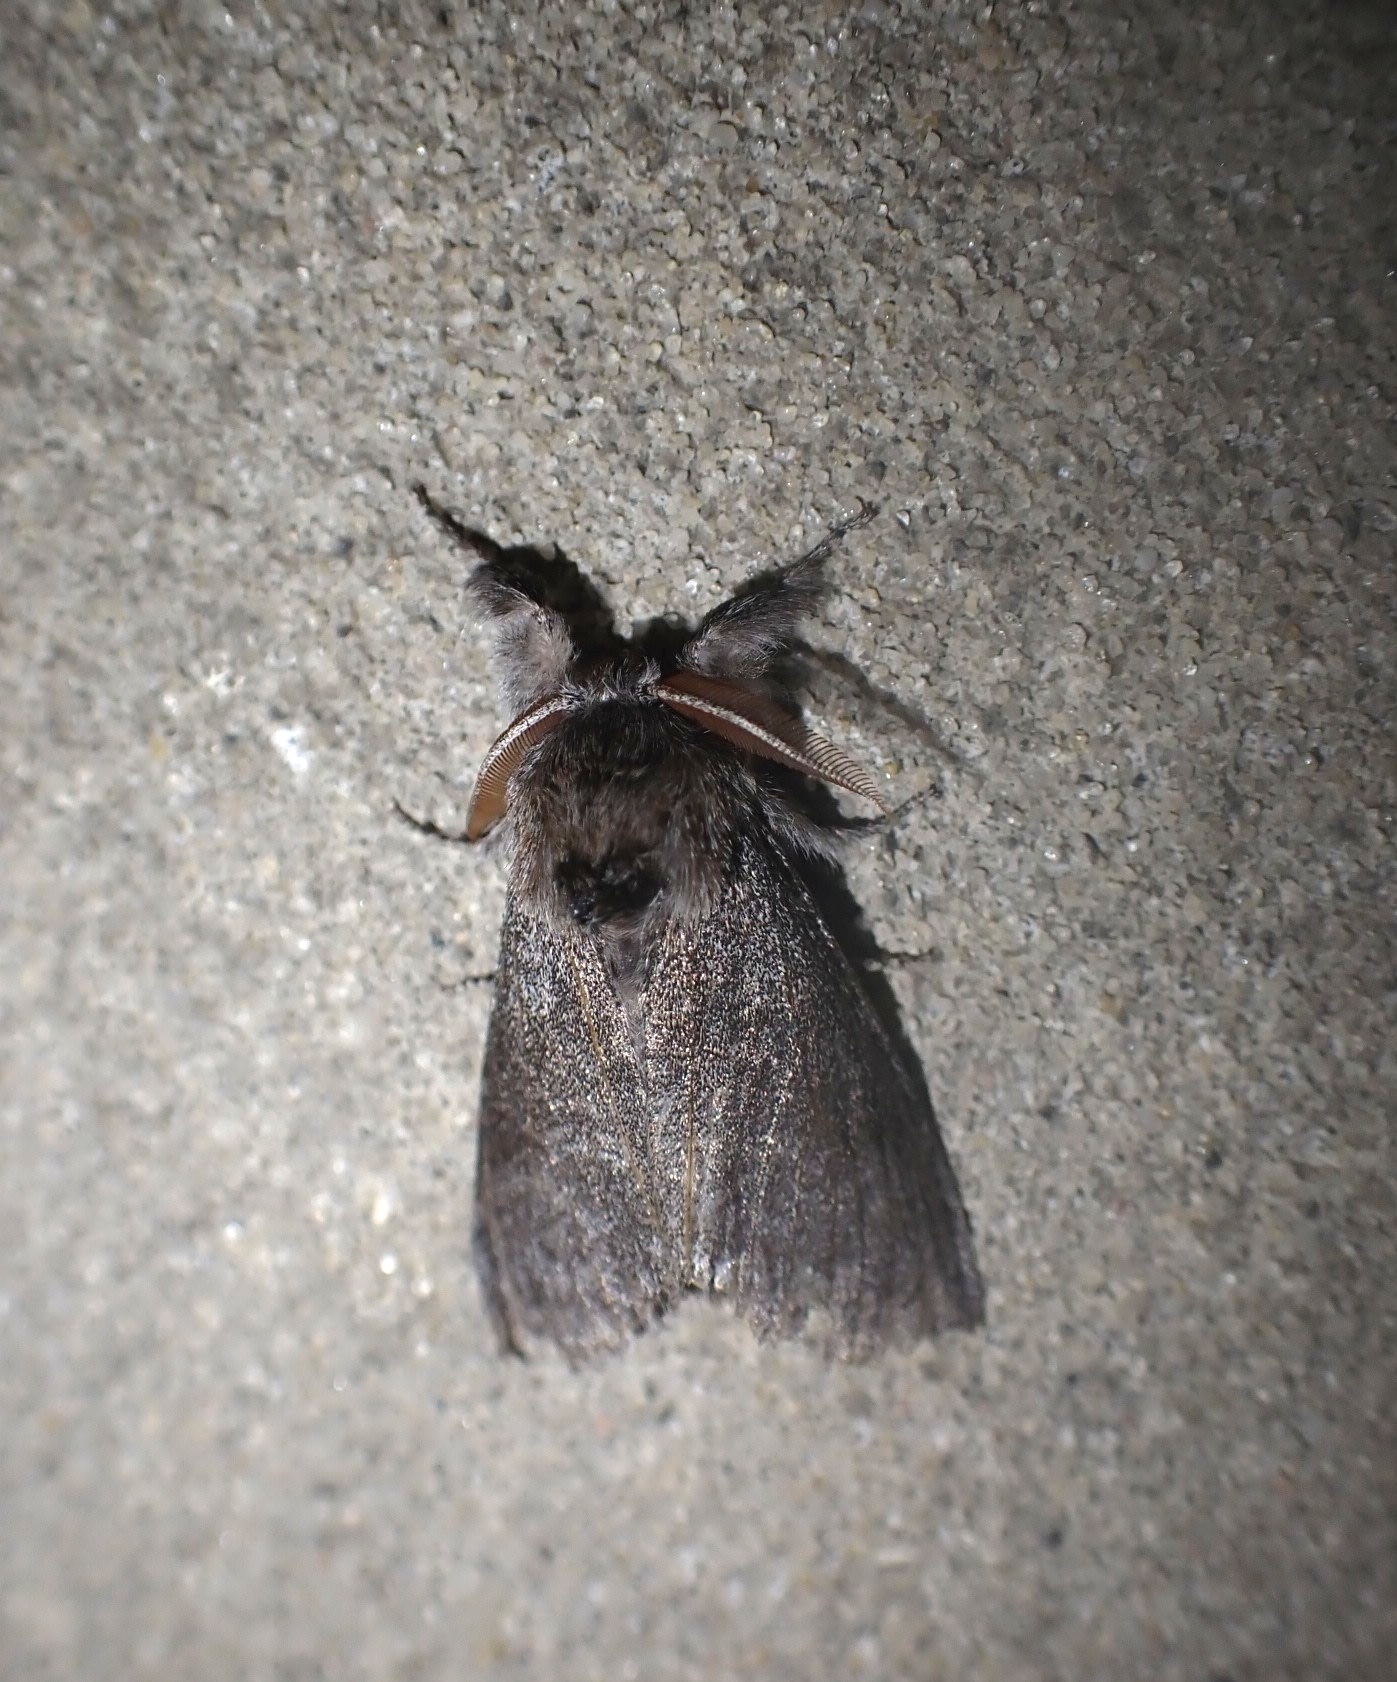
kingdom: Animalia
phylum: Arthropoda
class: Insecta
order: Lepidoptera
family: Erebidae
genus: Calliteara
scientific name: Calliteara pudibunda
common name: Pale tussock
